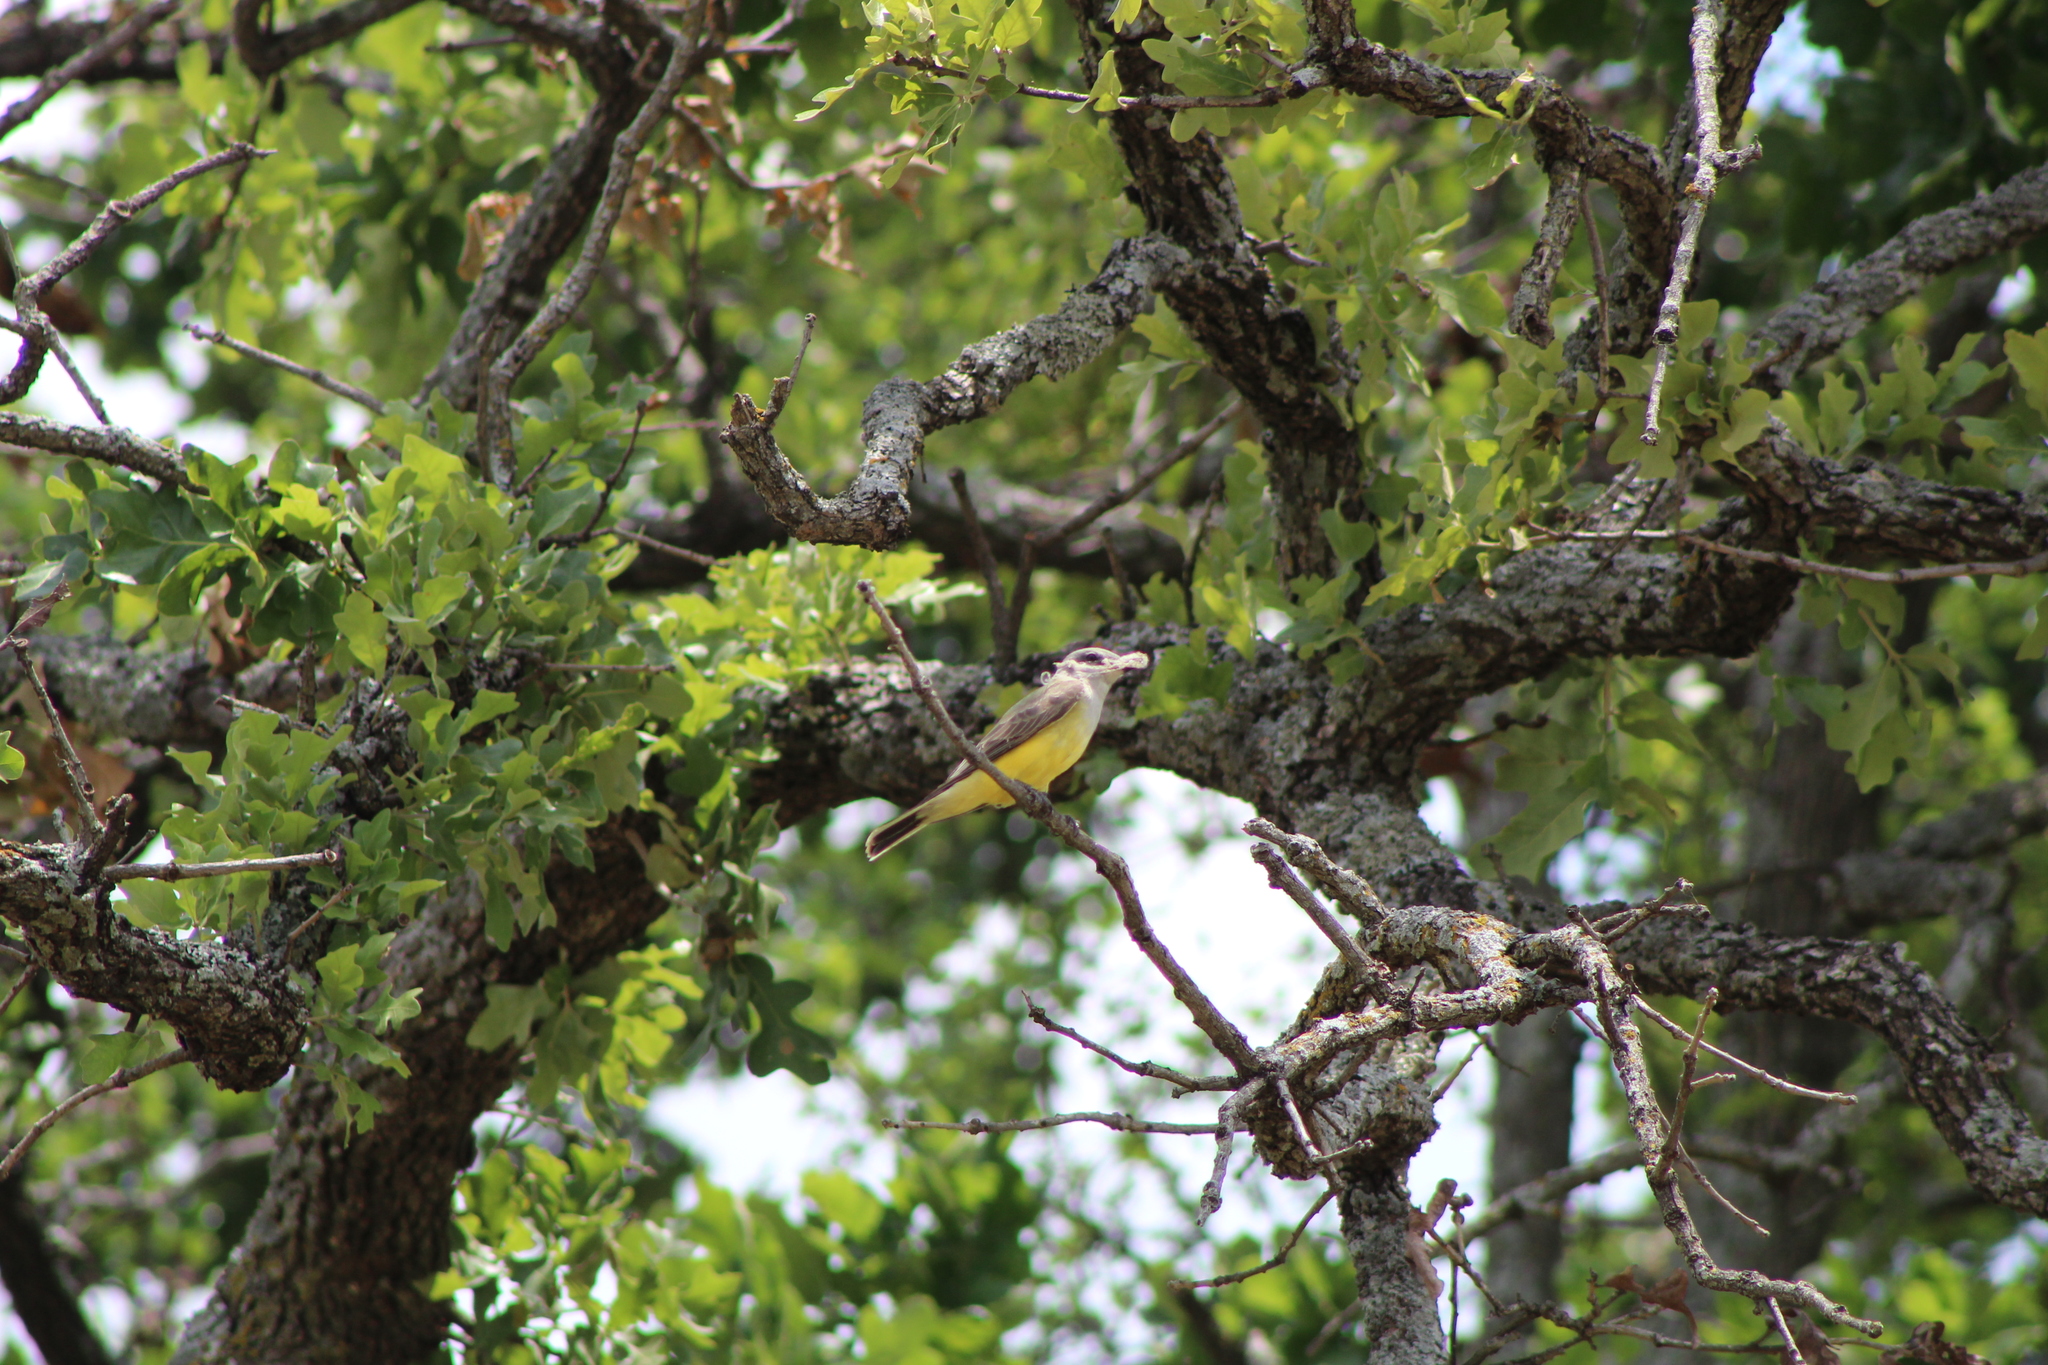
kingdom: Animalia
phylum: Chordata
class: Aves
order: Passeriformes
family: Tyrannidae
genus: Tyrannus
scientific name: Tyrannus verticalis
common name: Western kingbird
